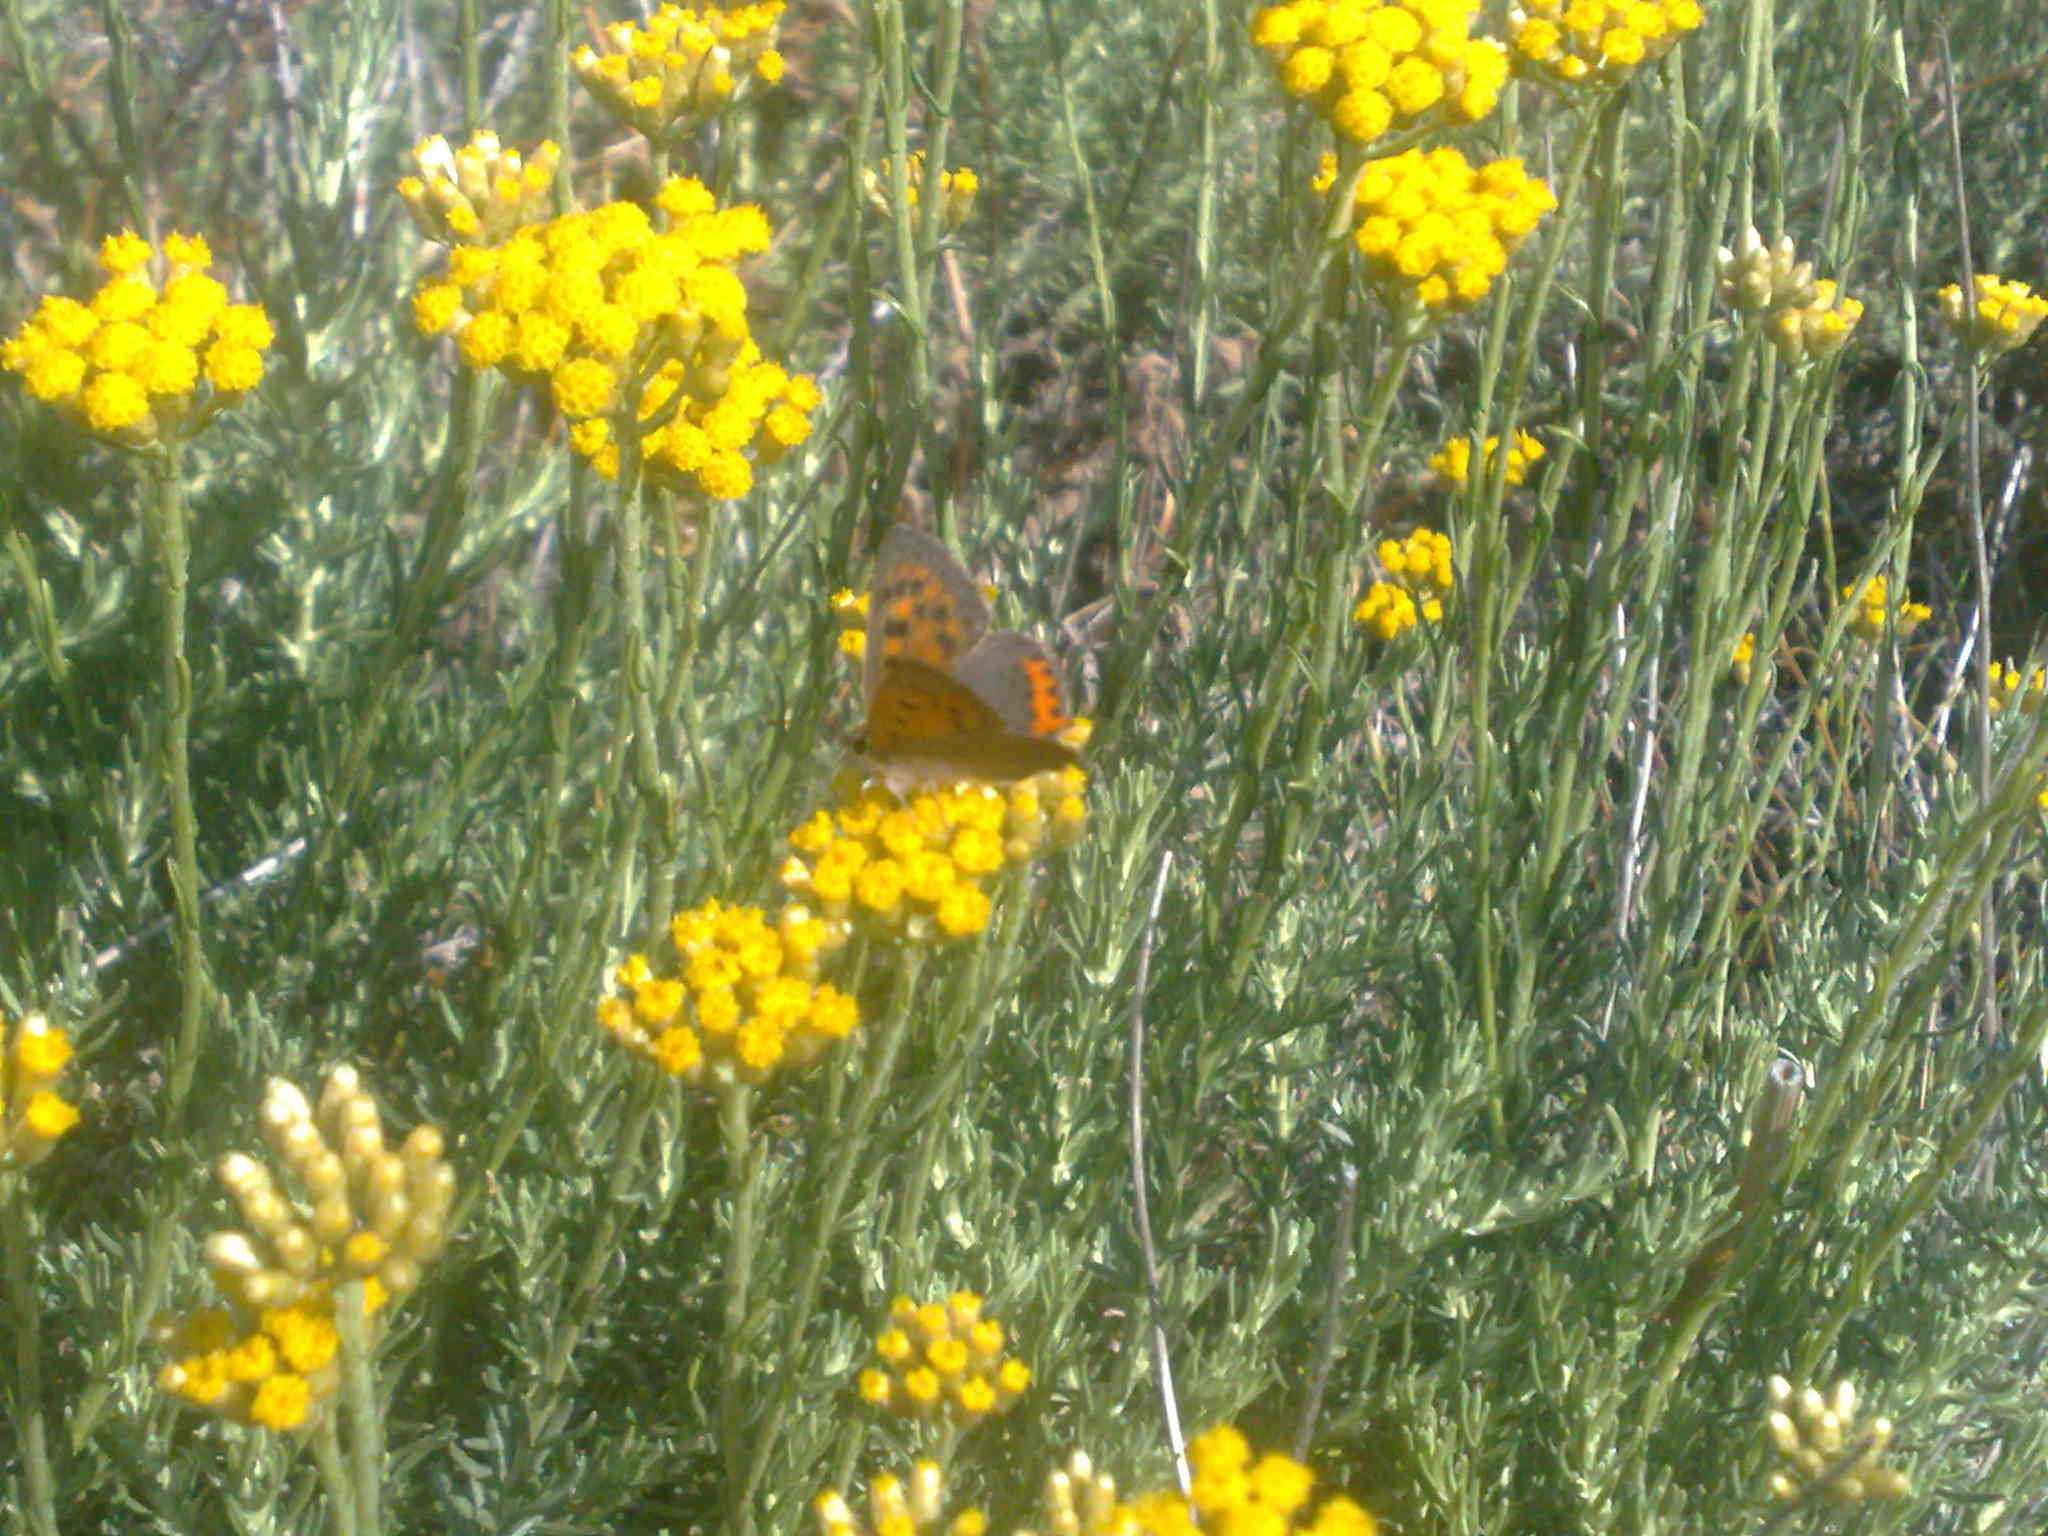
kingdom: Animalia
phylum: Arthropoda
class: Insecta
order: Lepidoptera
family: Lycaenidae
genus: Lycaena
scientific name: Lycaena phlaeas
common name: Small copper
